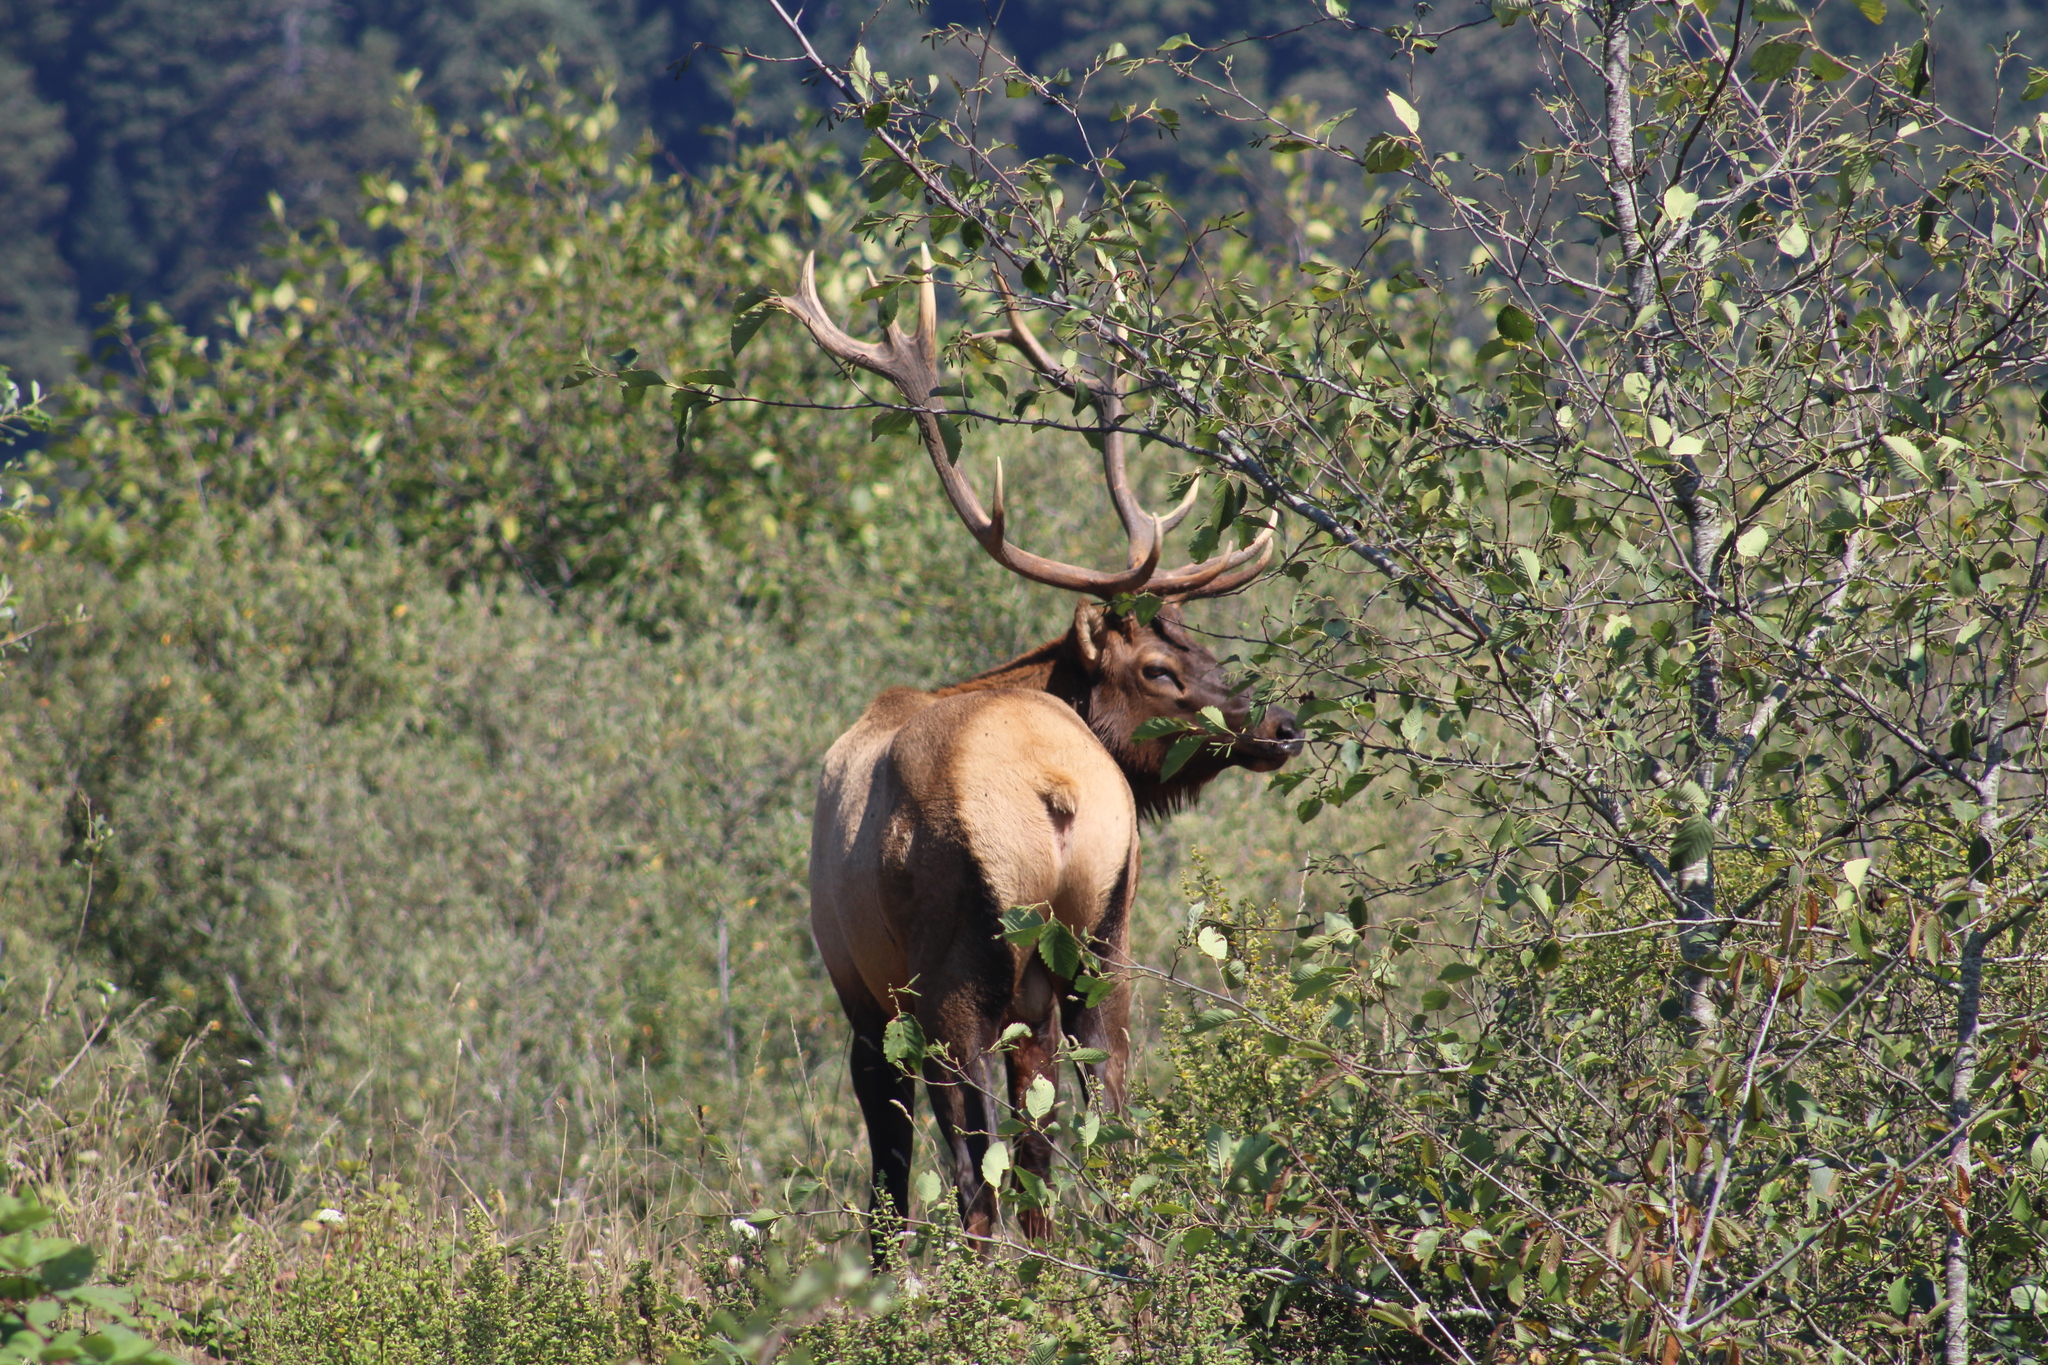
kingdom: Animalia
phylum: Chordata
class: Mammalia
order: Artiodactyla
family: Cervidae
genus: Cervus
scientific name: Cervus elaphus
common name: Red deer
